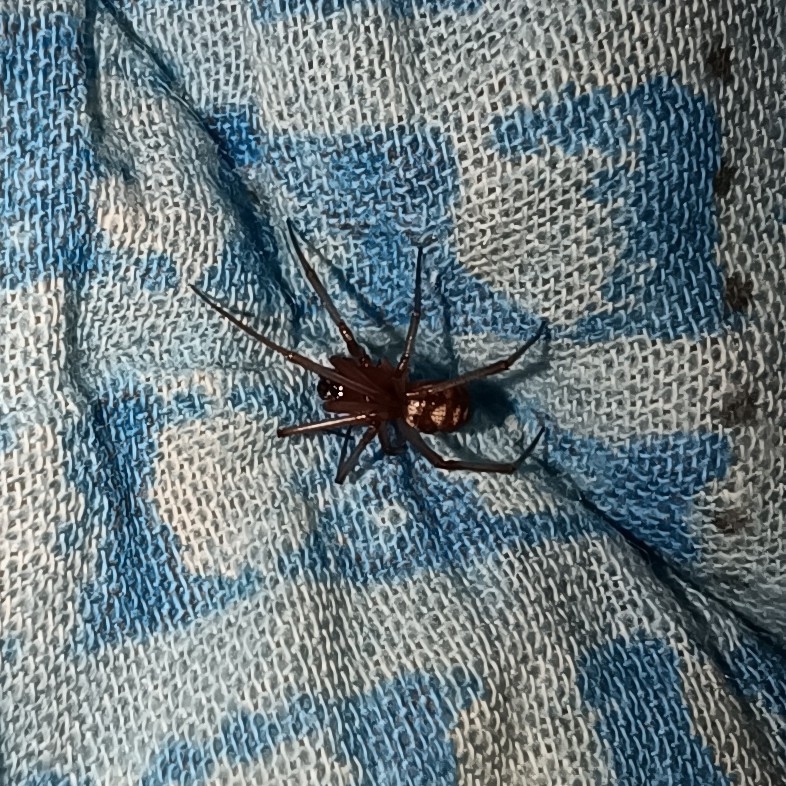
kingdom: Animalia
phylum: Arthropoda
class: Arachnida
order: Araneae
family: Theridiidae
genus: Steatoda
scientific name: Steatoda grossa
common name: False black widow
